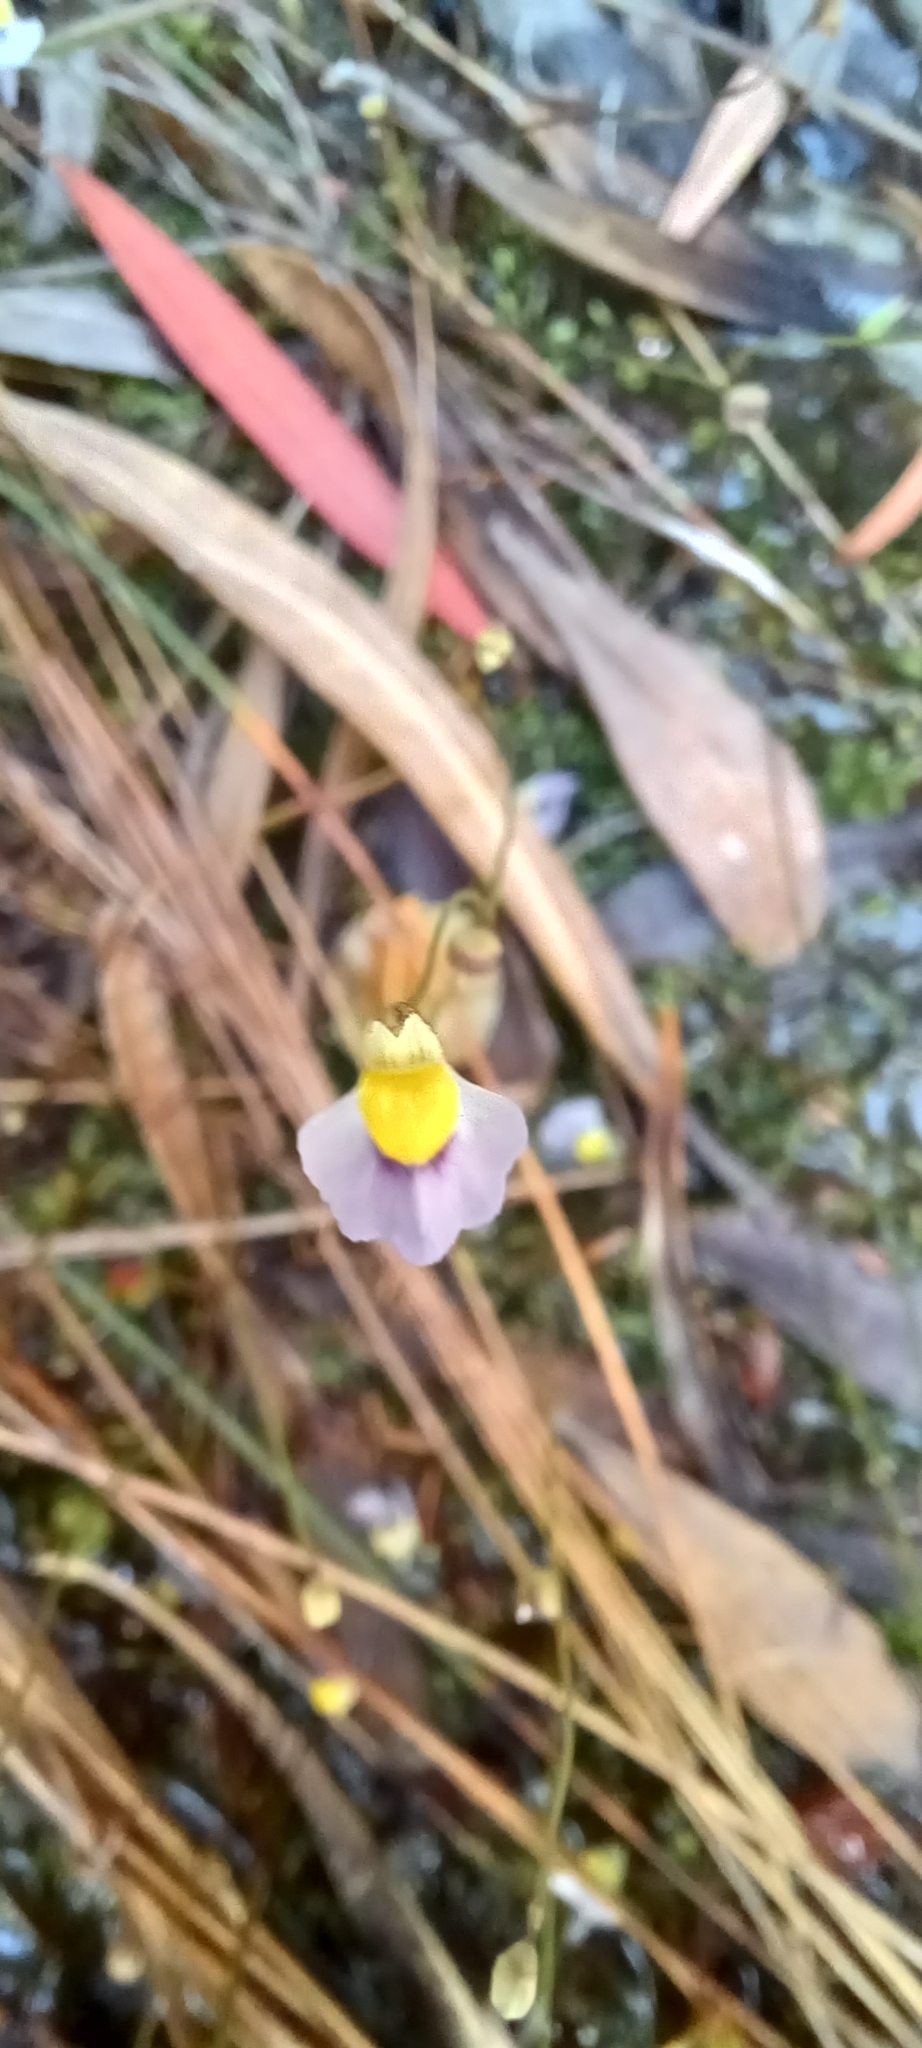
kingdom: Plantae
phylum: Tracheophyta
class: Magnoliopsida
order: Lamiales
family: Lentibulariaceae
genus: Utricularia
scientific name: Utricularia bisquamata
